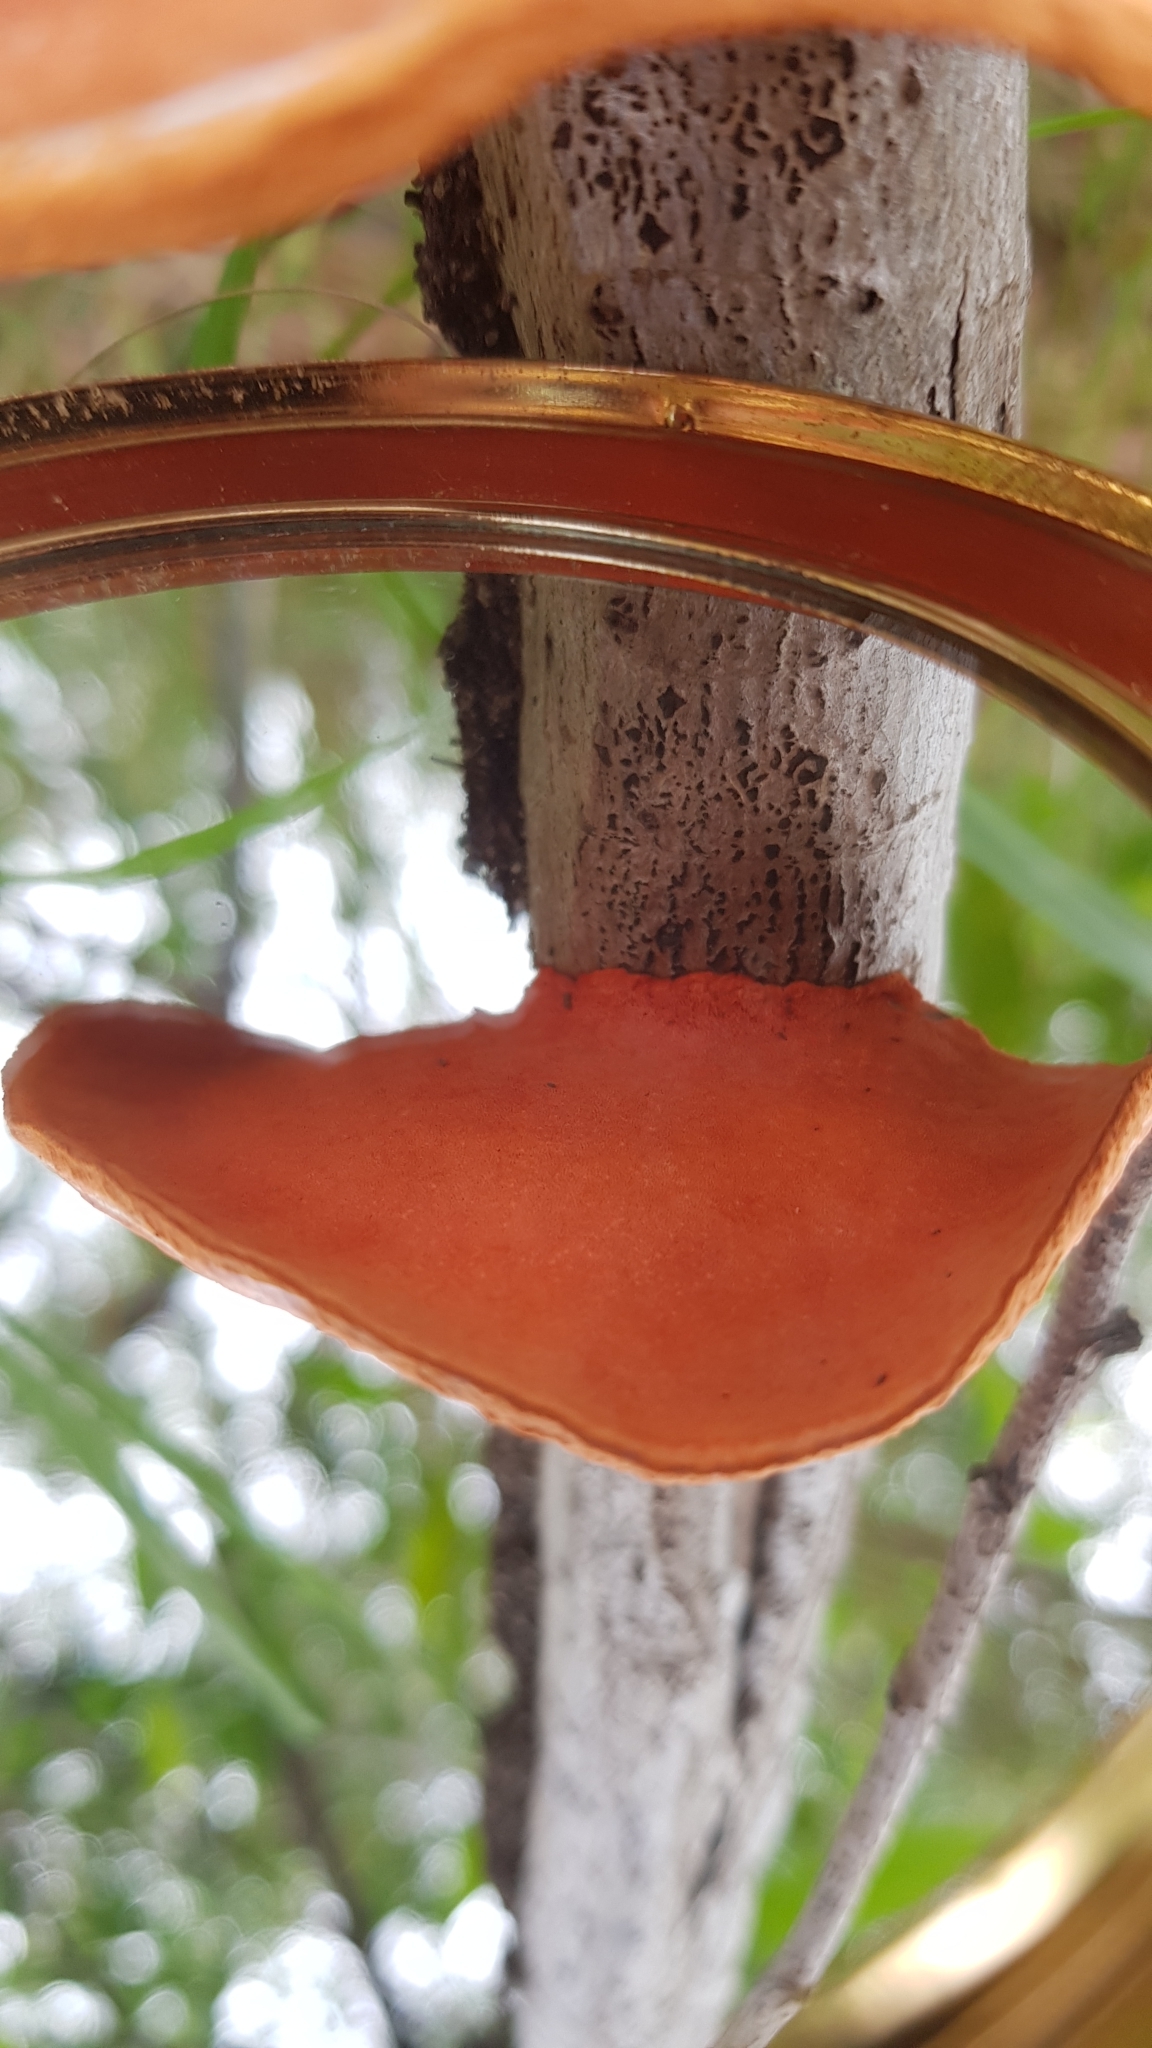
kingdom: Fungi
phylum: Basidiomycota
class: Agaricomycetes
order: Polyporales
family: Polyporaceae
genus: Trametes
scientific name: Trametes coccinea
